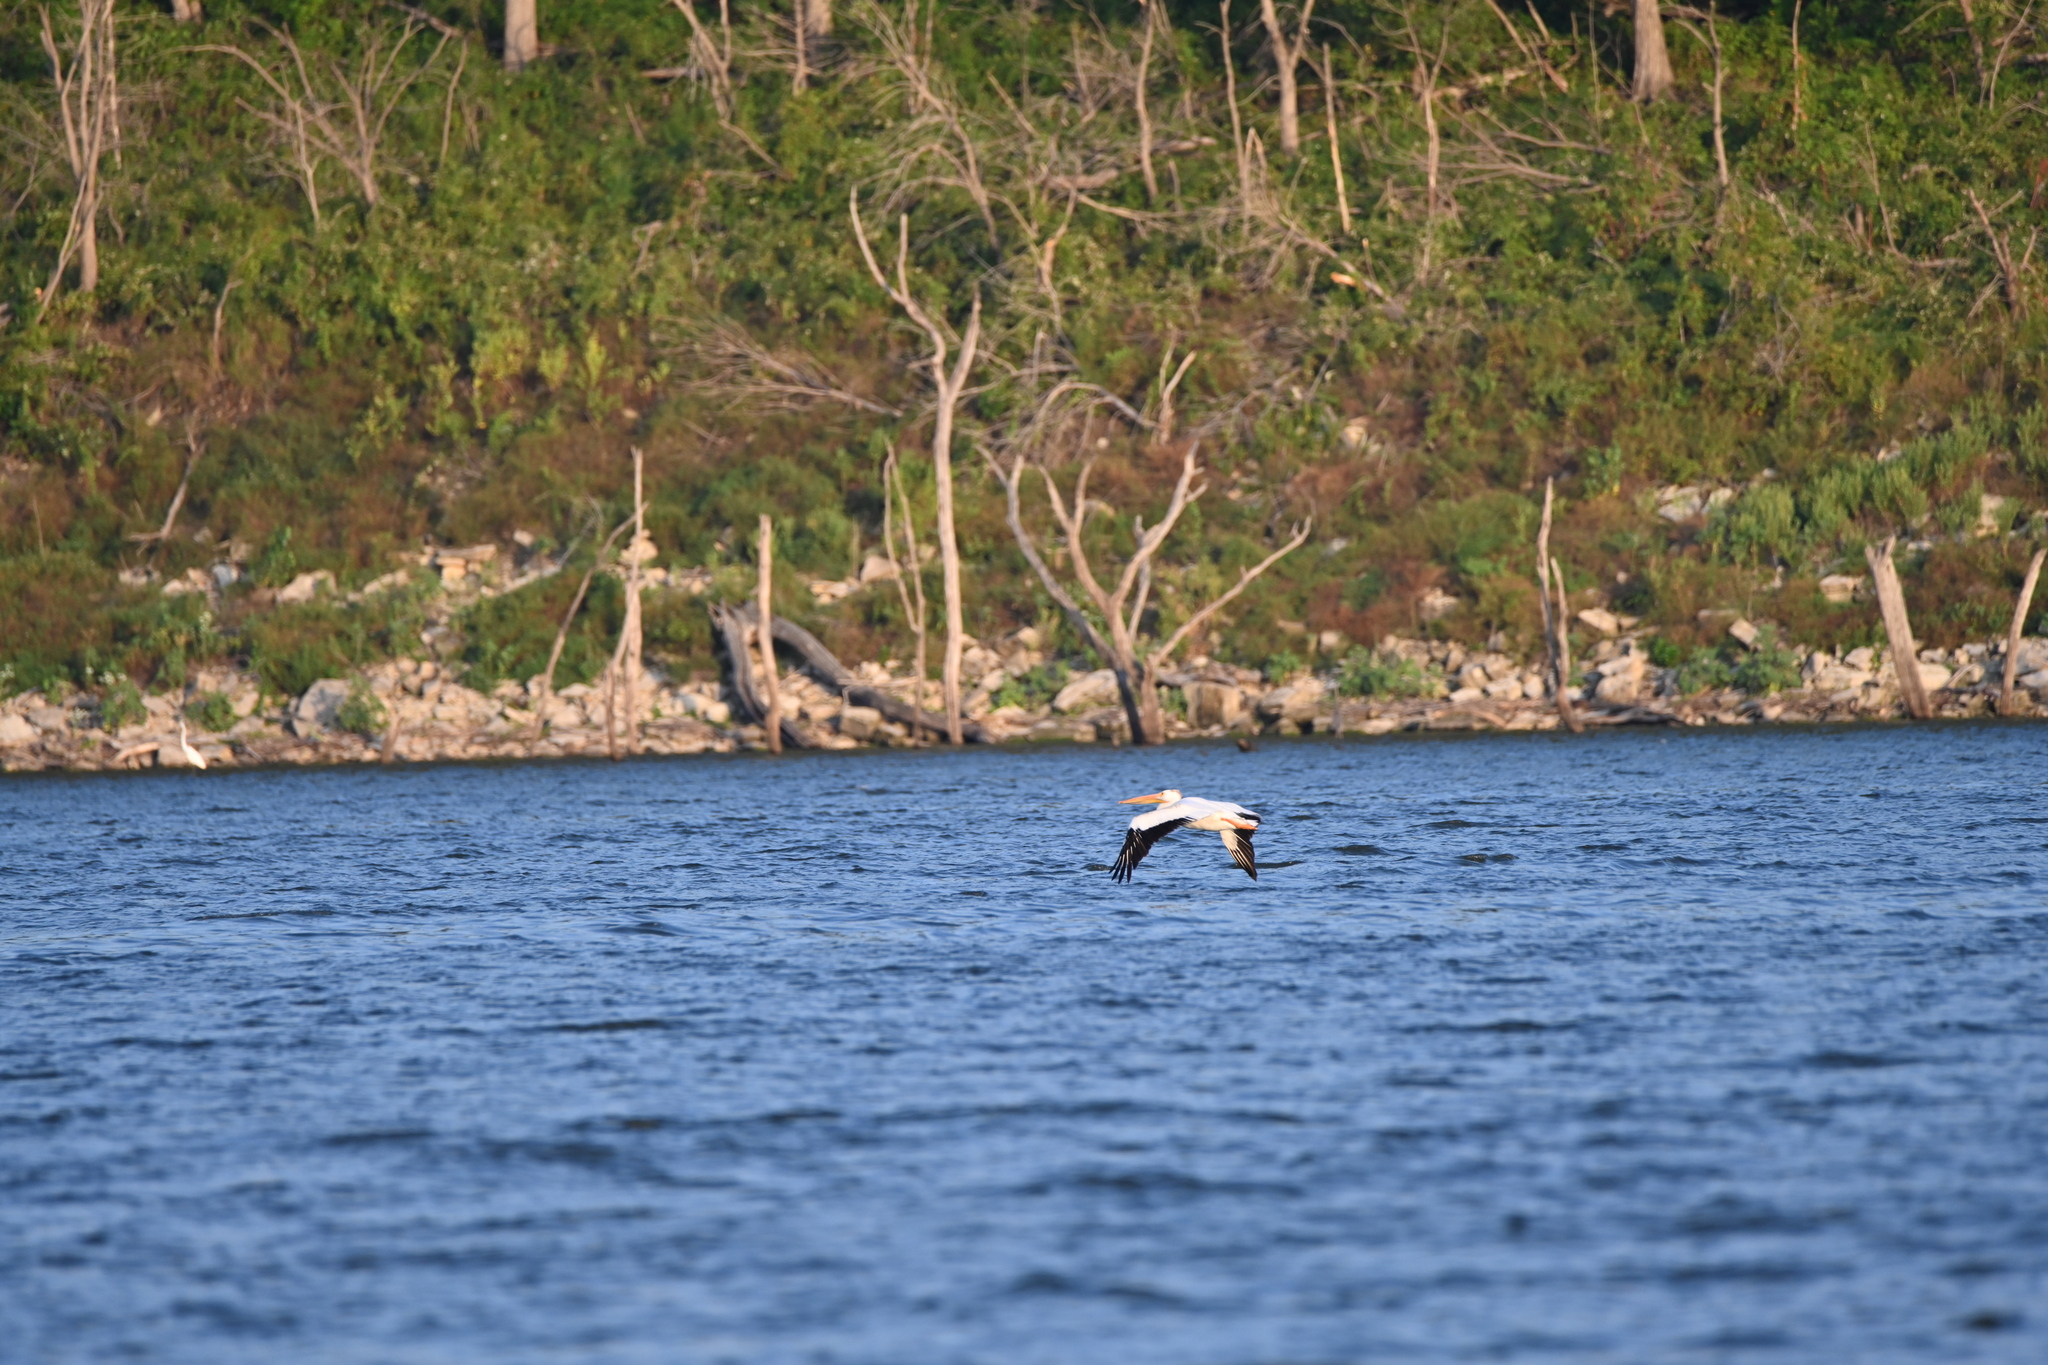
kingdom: Animalia
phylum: Chordata
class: Aves
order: Pelecaniformes
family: Pelecanidae
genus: Pelecanus
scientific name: Pelecanus erythrorhynchos
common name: American white pelican
